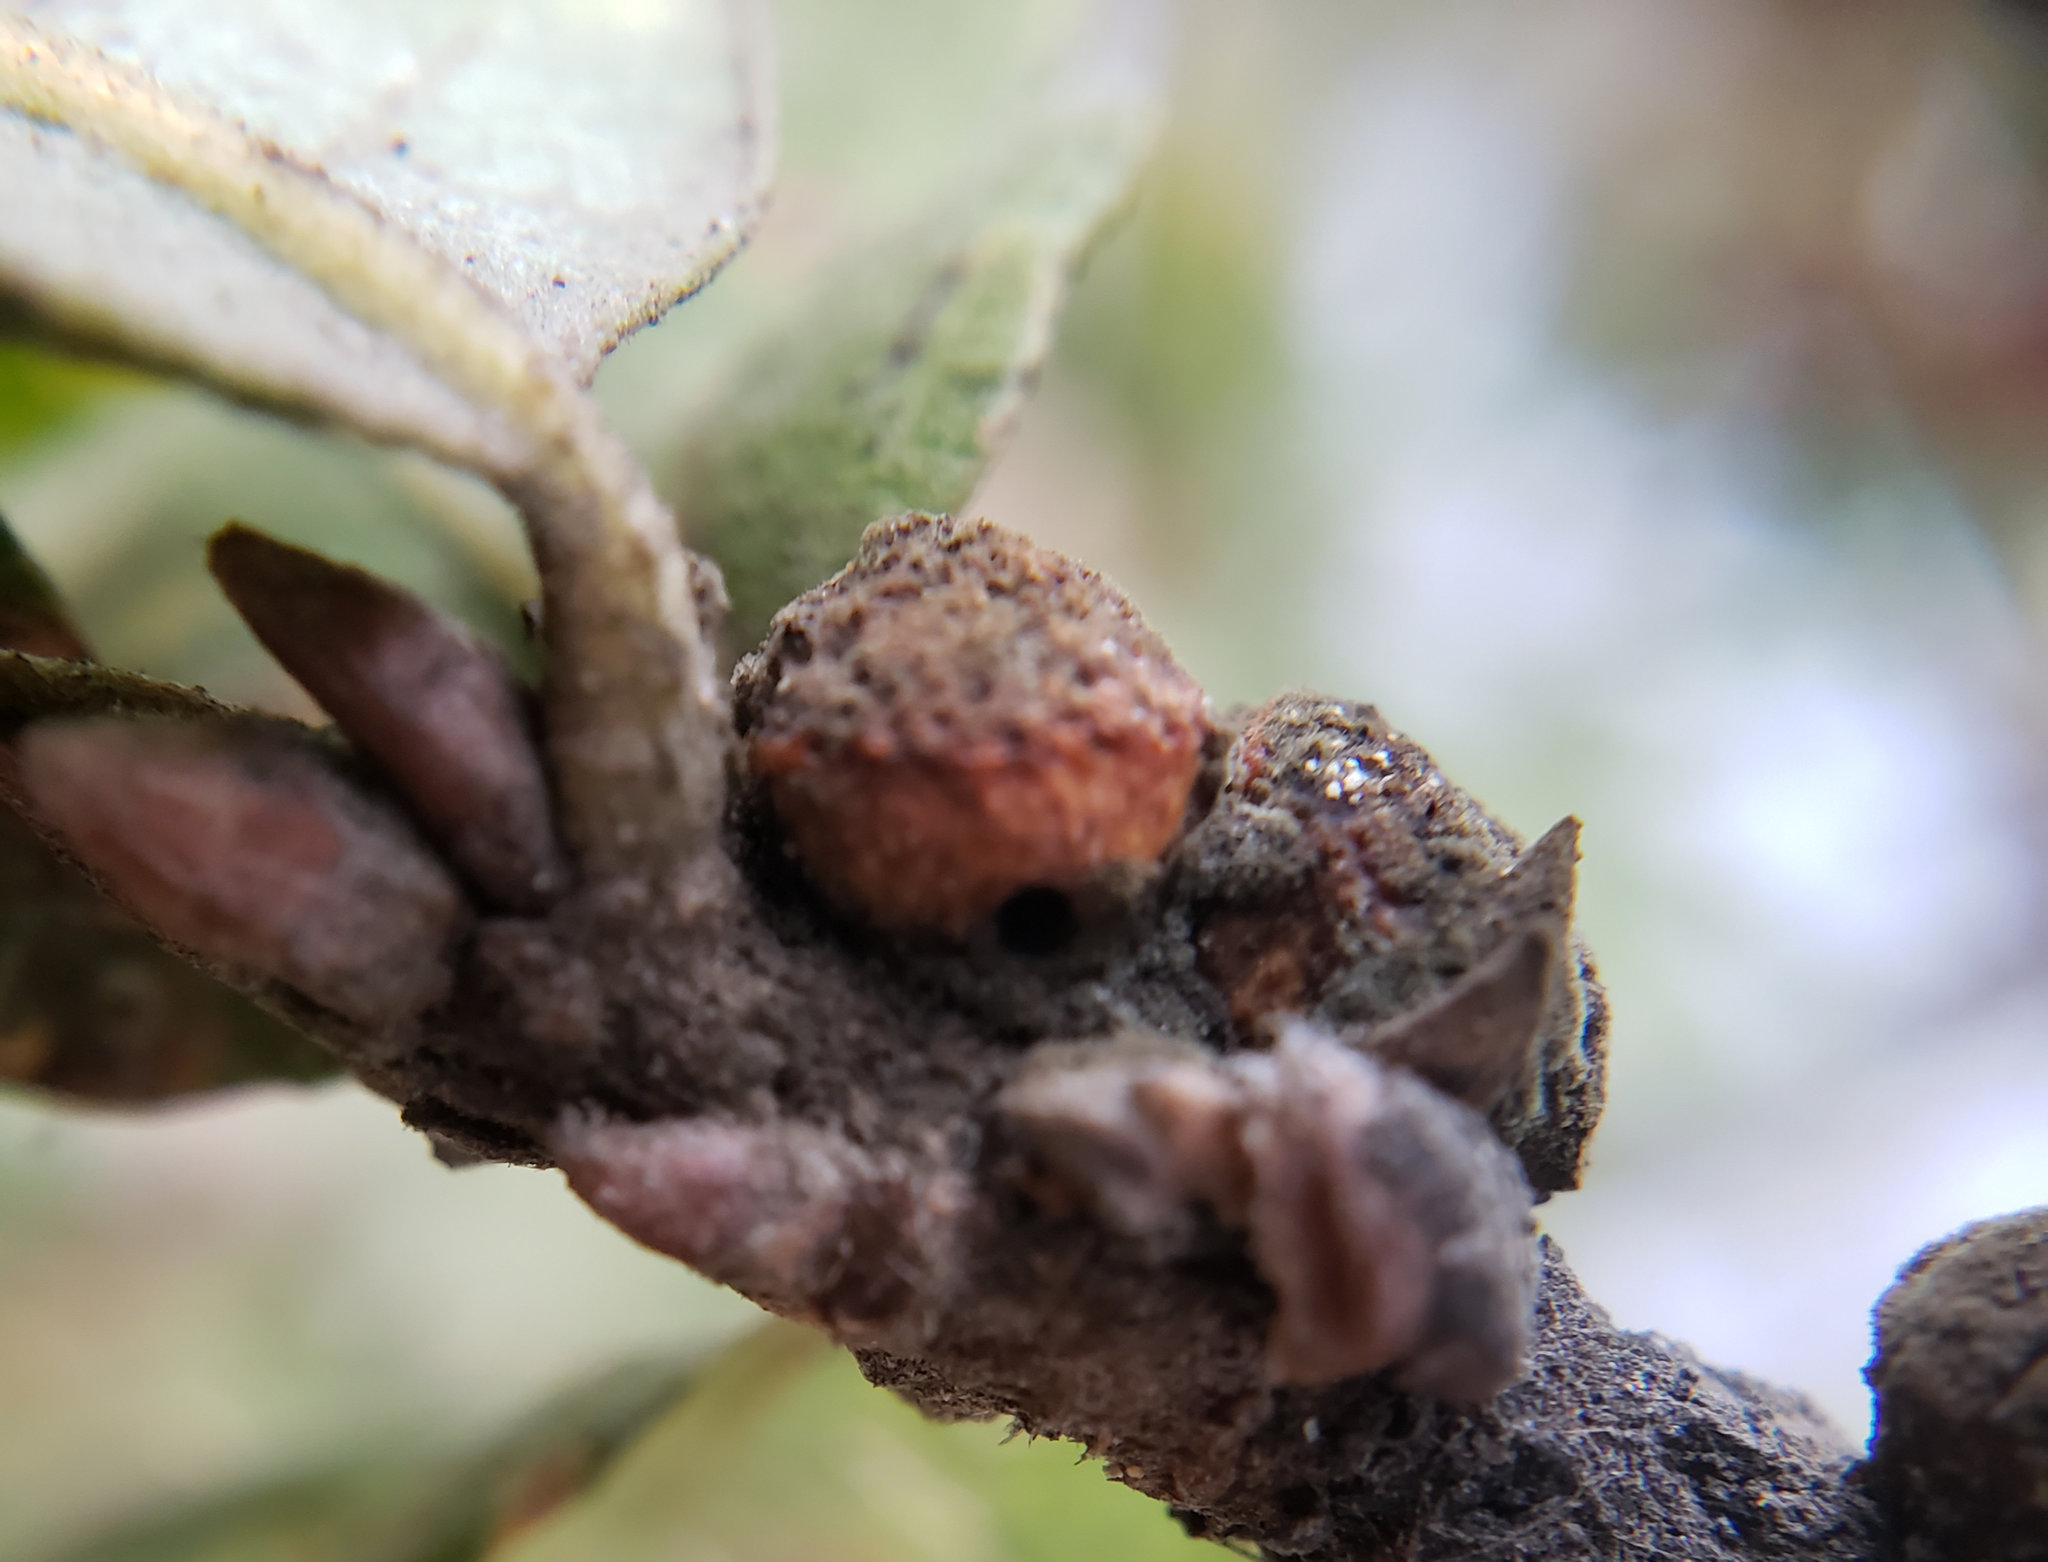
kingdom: Animalia
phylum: Arthropoda
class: Insecta
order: Hymenoptera
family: Cynipidae
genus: Disholcaspis
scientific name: Disholcaspis
